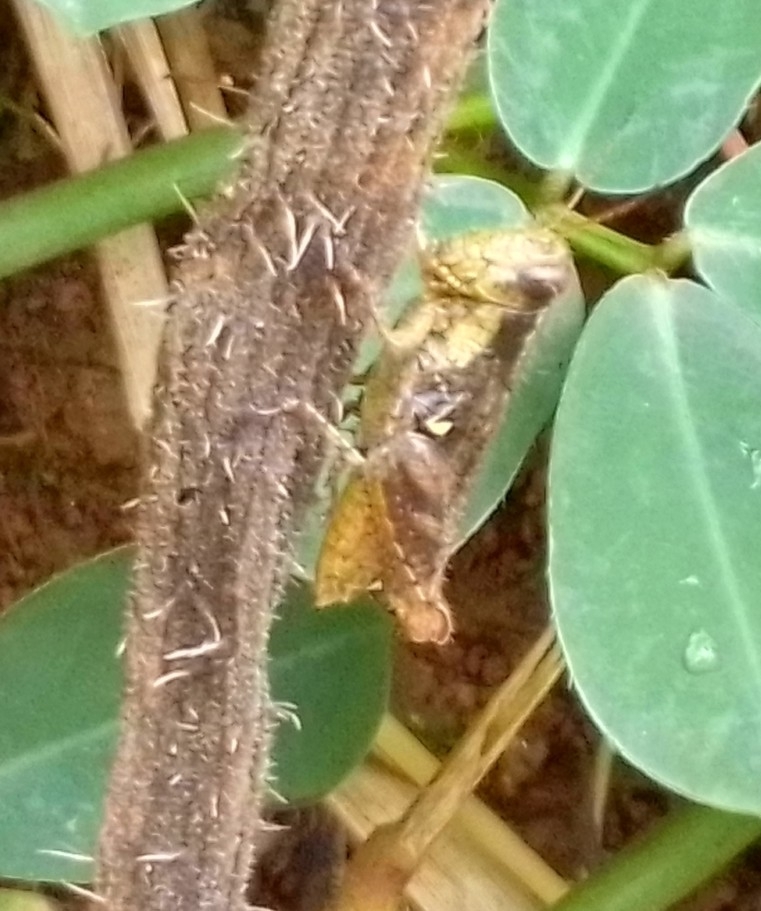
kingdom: Animalia
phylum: Arthropoda
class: Insecta
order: Orthoptera
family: Acrididae
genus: Aidemona
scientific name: Aidemona azteca
